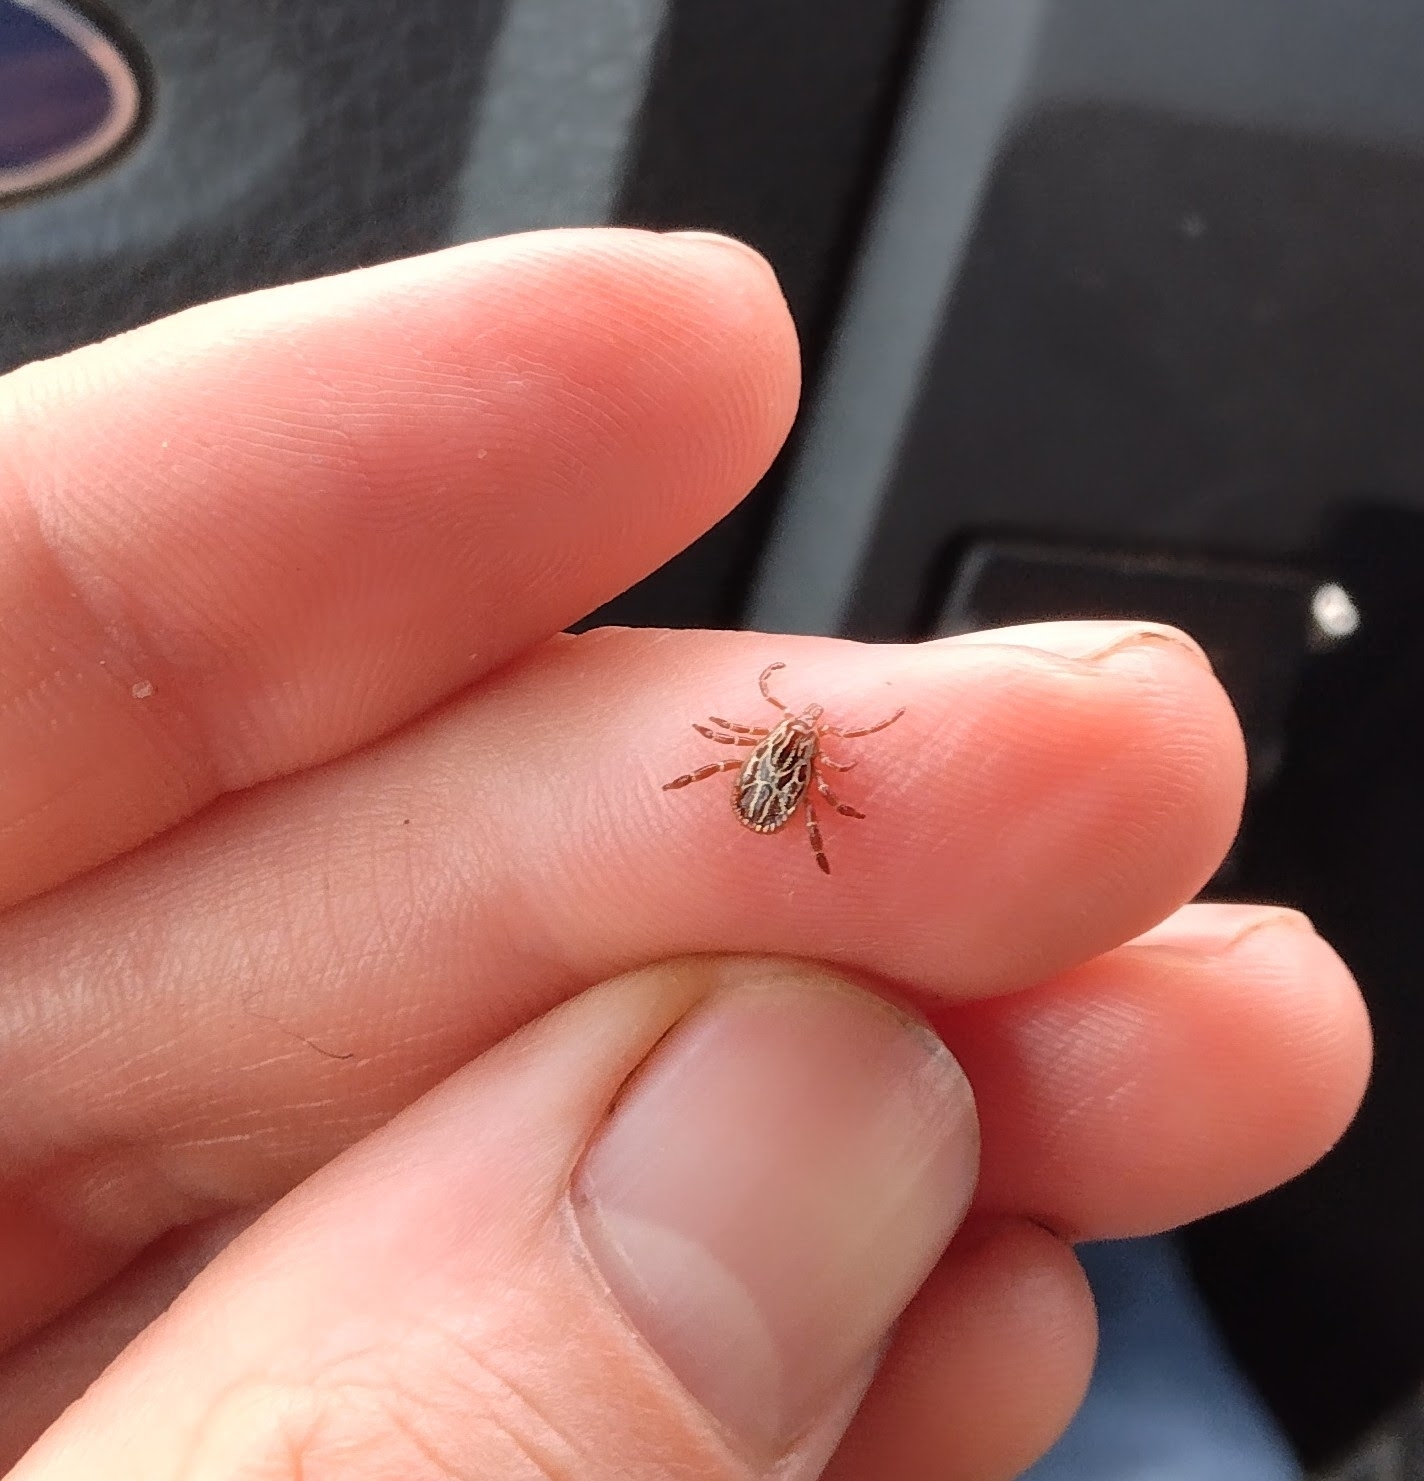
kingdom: Animalia
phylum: Arthropoda
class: Arachnida
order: Ixodida
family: Ixodidae
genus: Amblyomma
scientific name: Amblyomma maculatum
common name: Gulf coast tick
